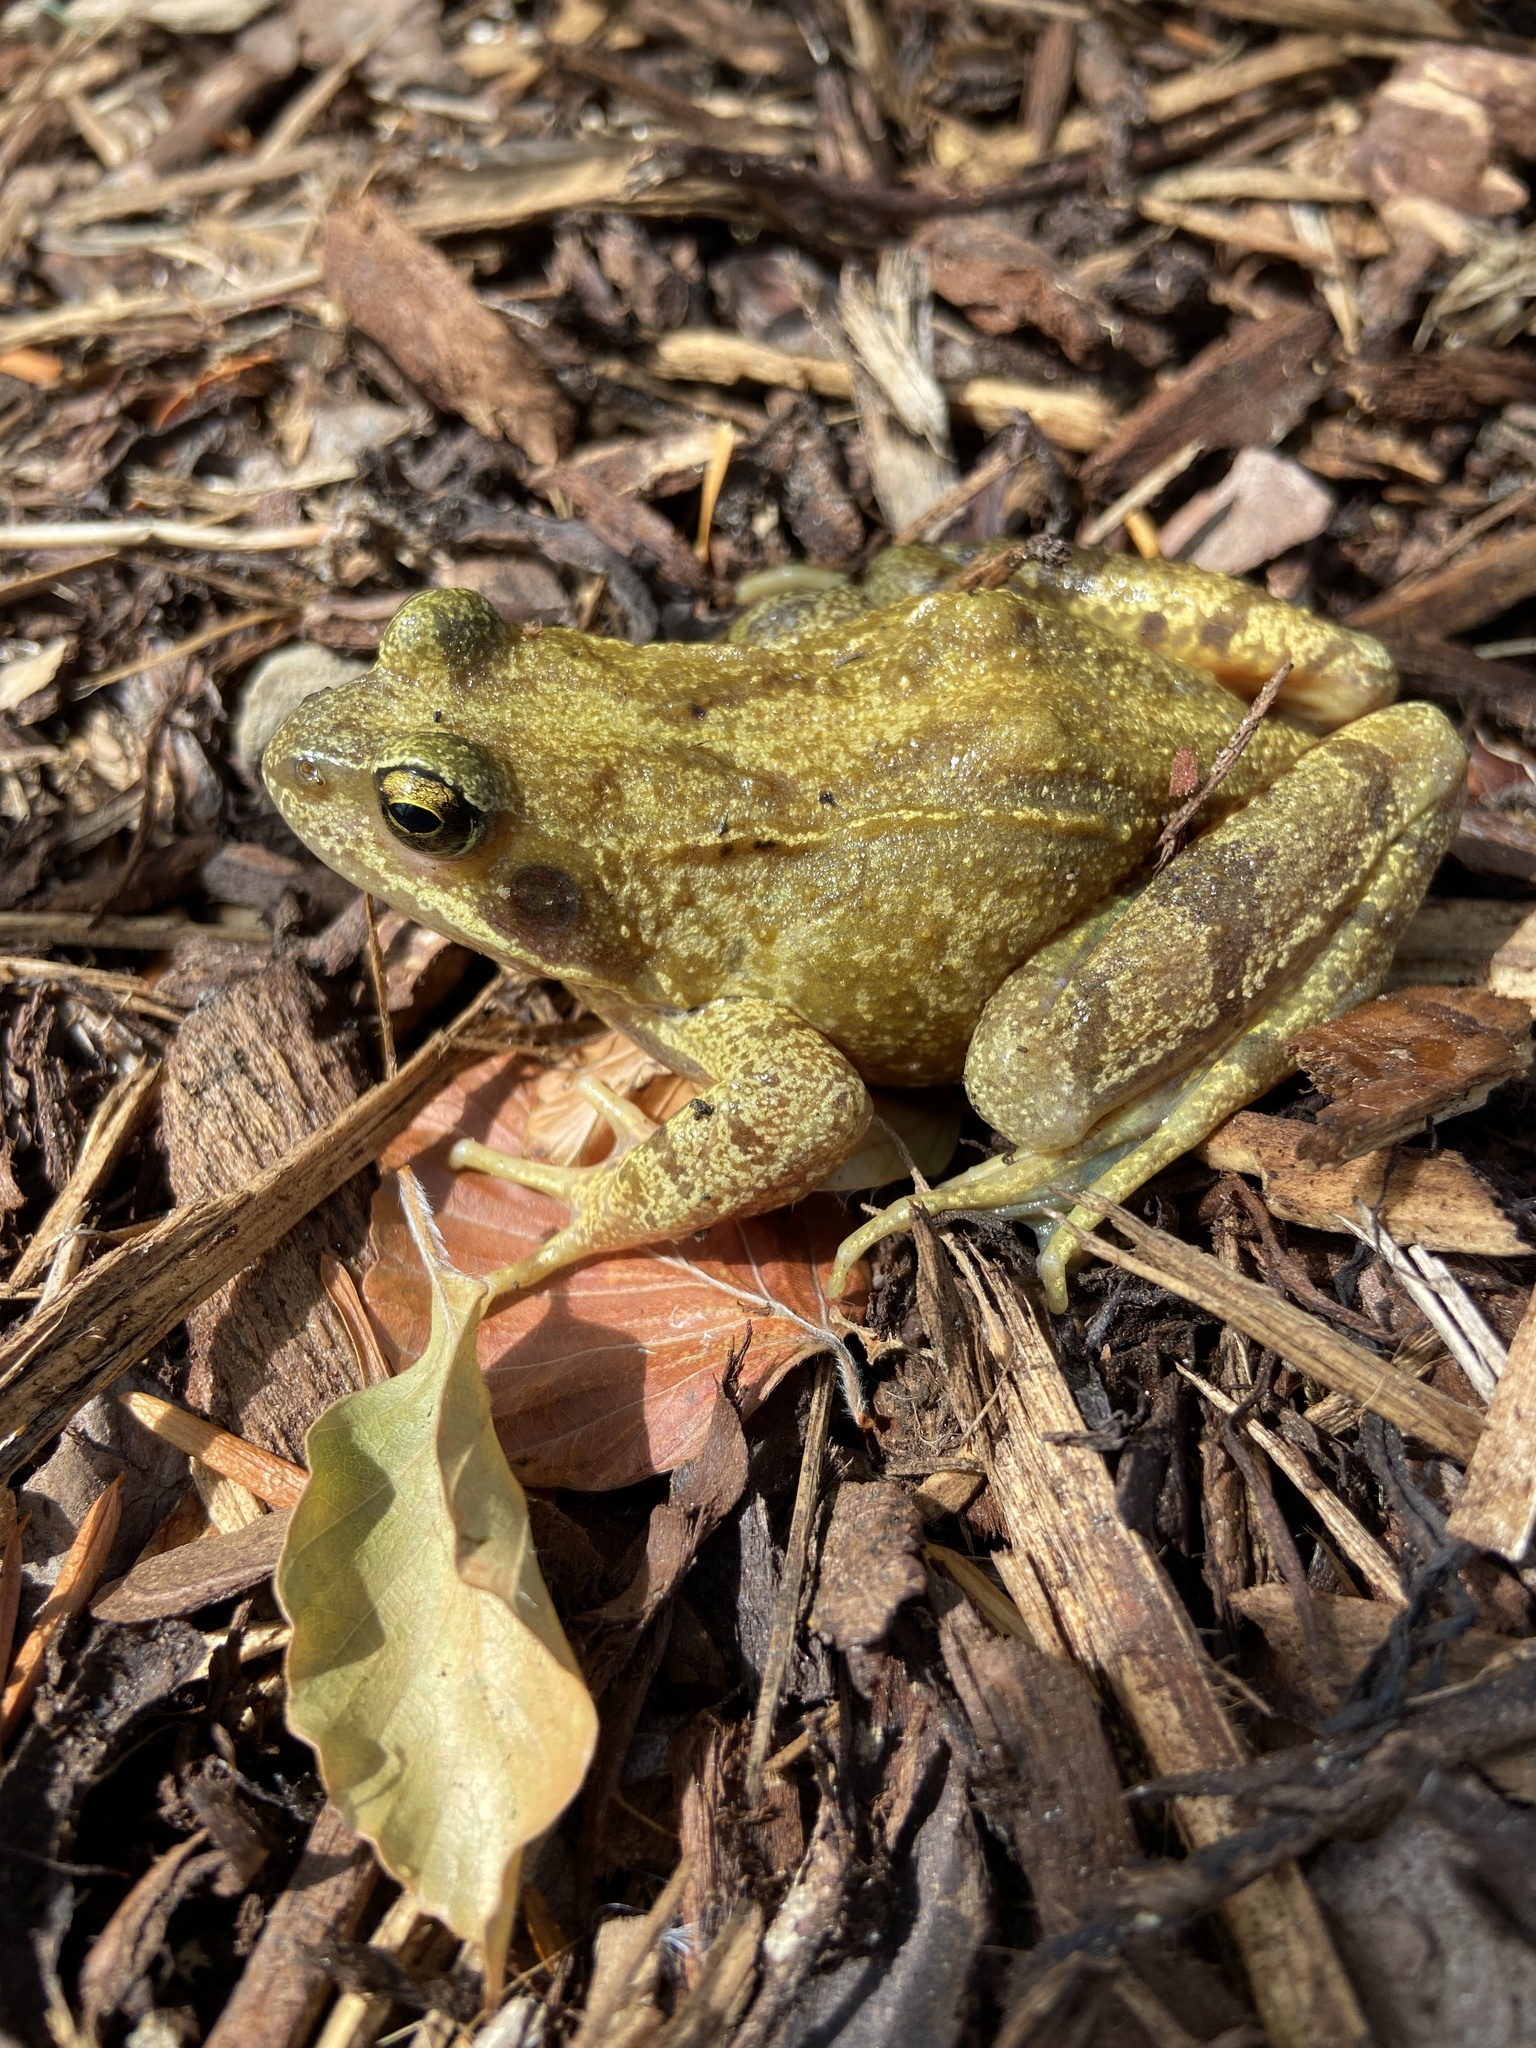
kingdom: Animalia
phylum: Chordata
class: Amphibia
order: Anura
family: Ranidae
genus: Rana
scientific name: Rana temporaria
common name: Common frog
